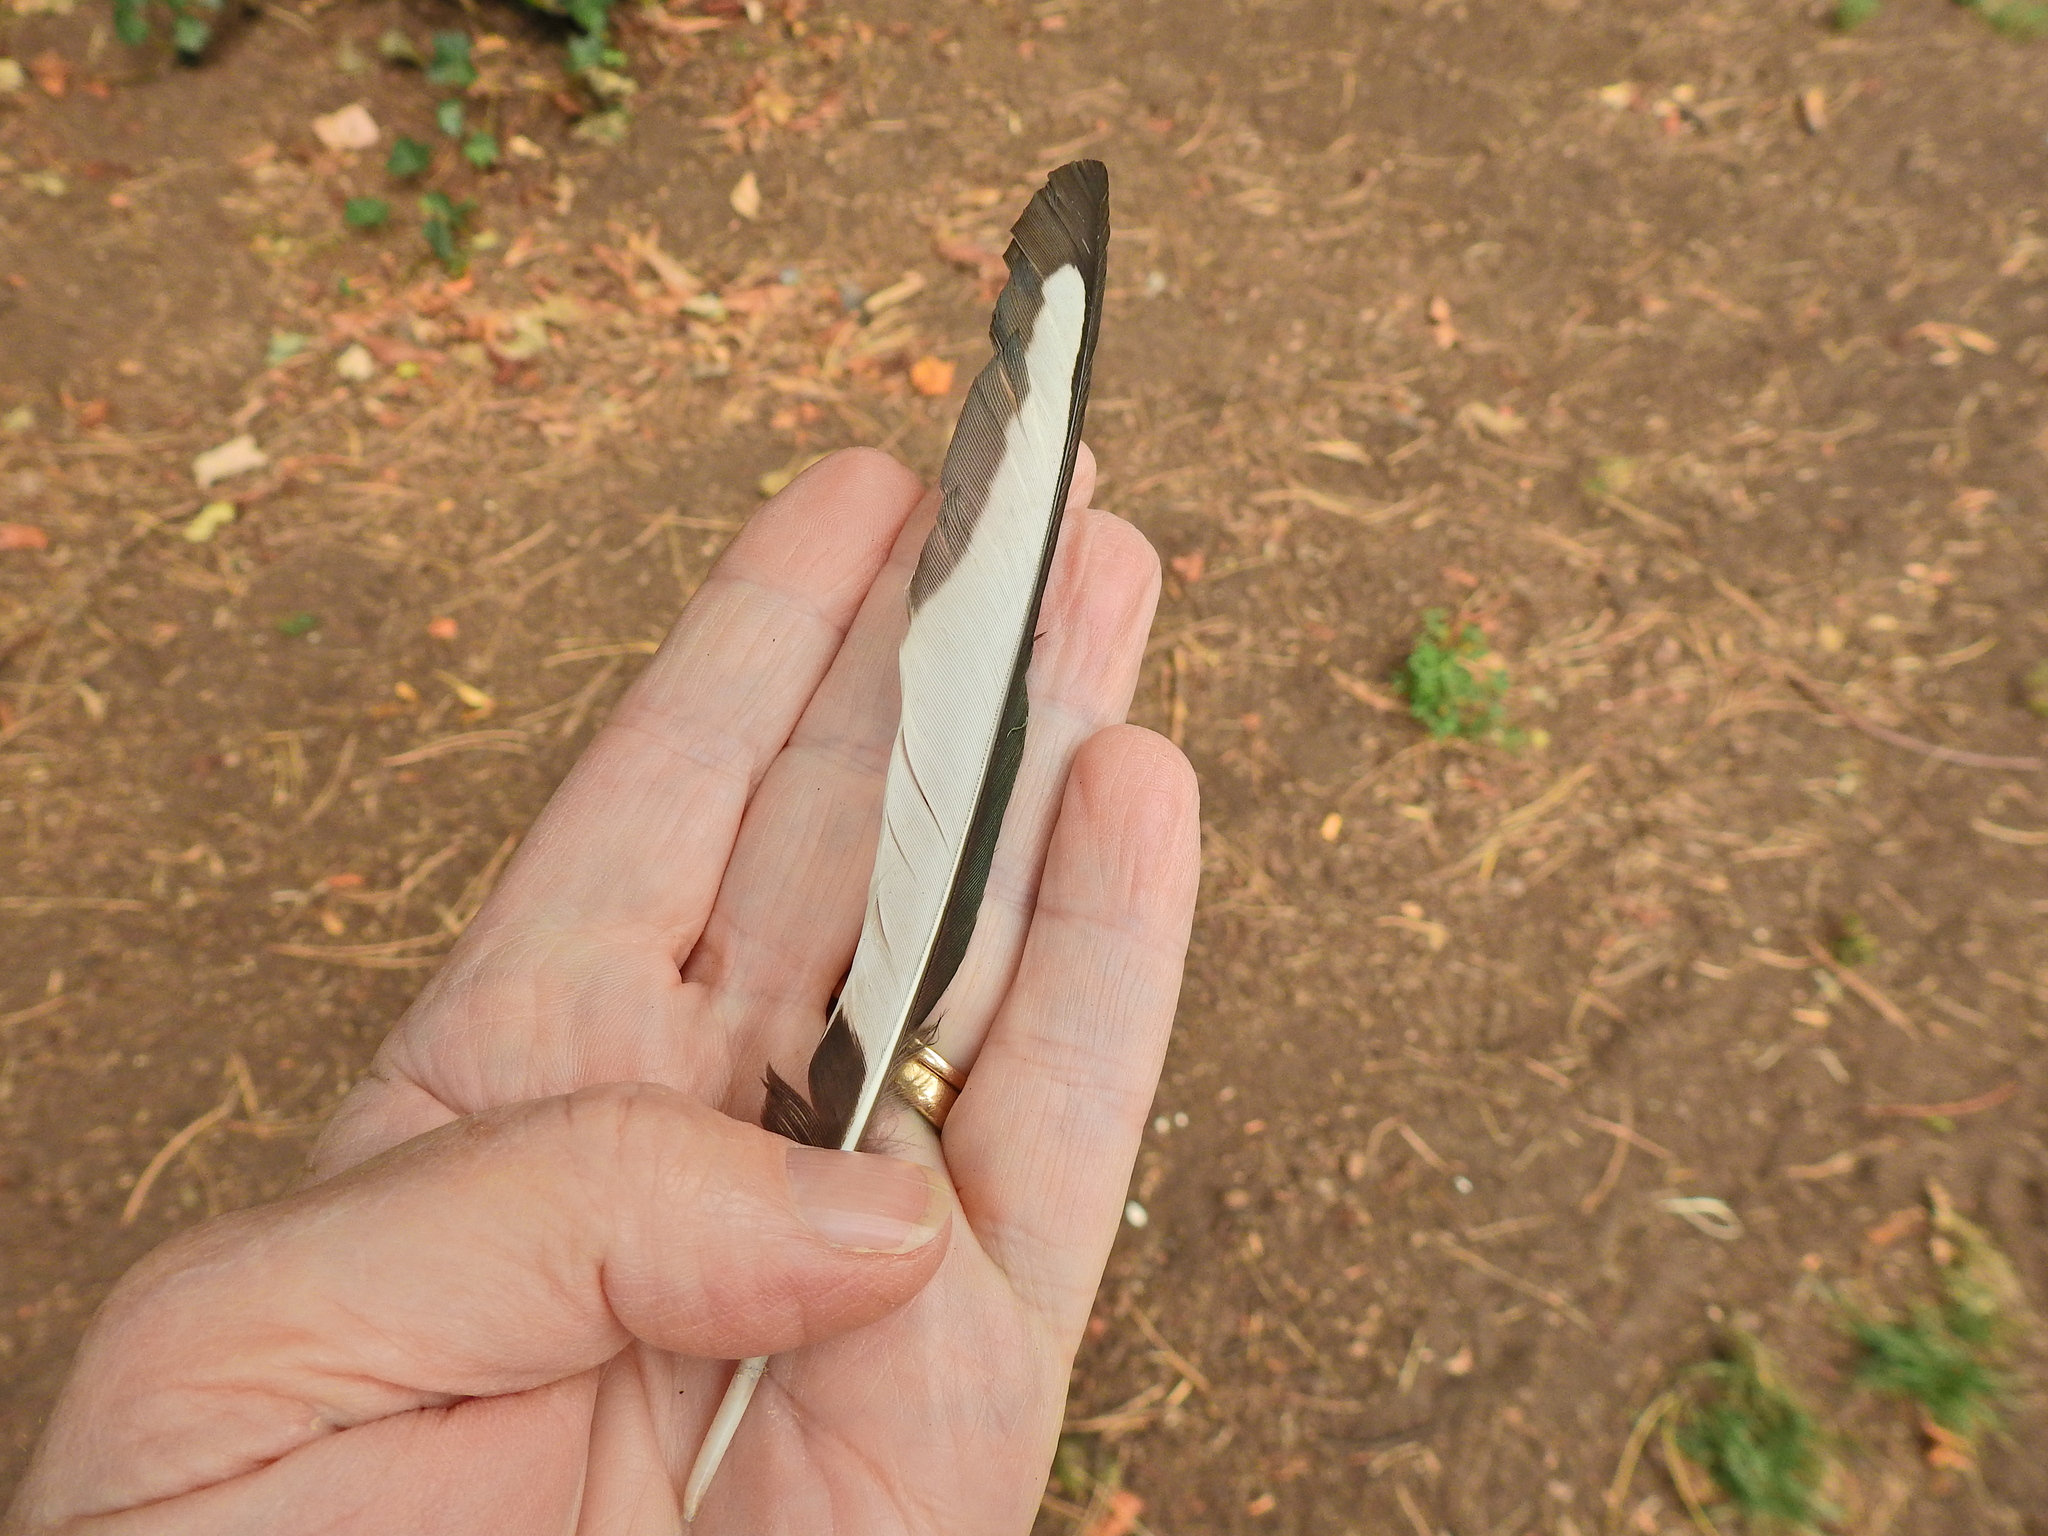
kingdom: Animalia
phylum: Chordata
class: Aves
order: Passeriformes
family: Corvidae
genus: Pica
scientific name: Pica pica
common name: Eurasian magpie
